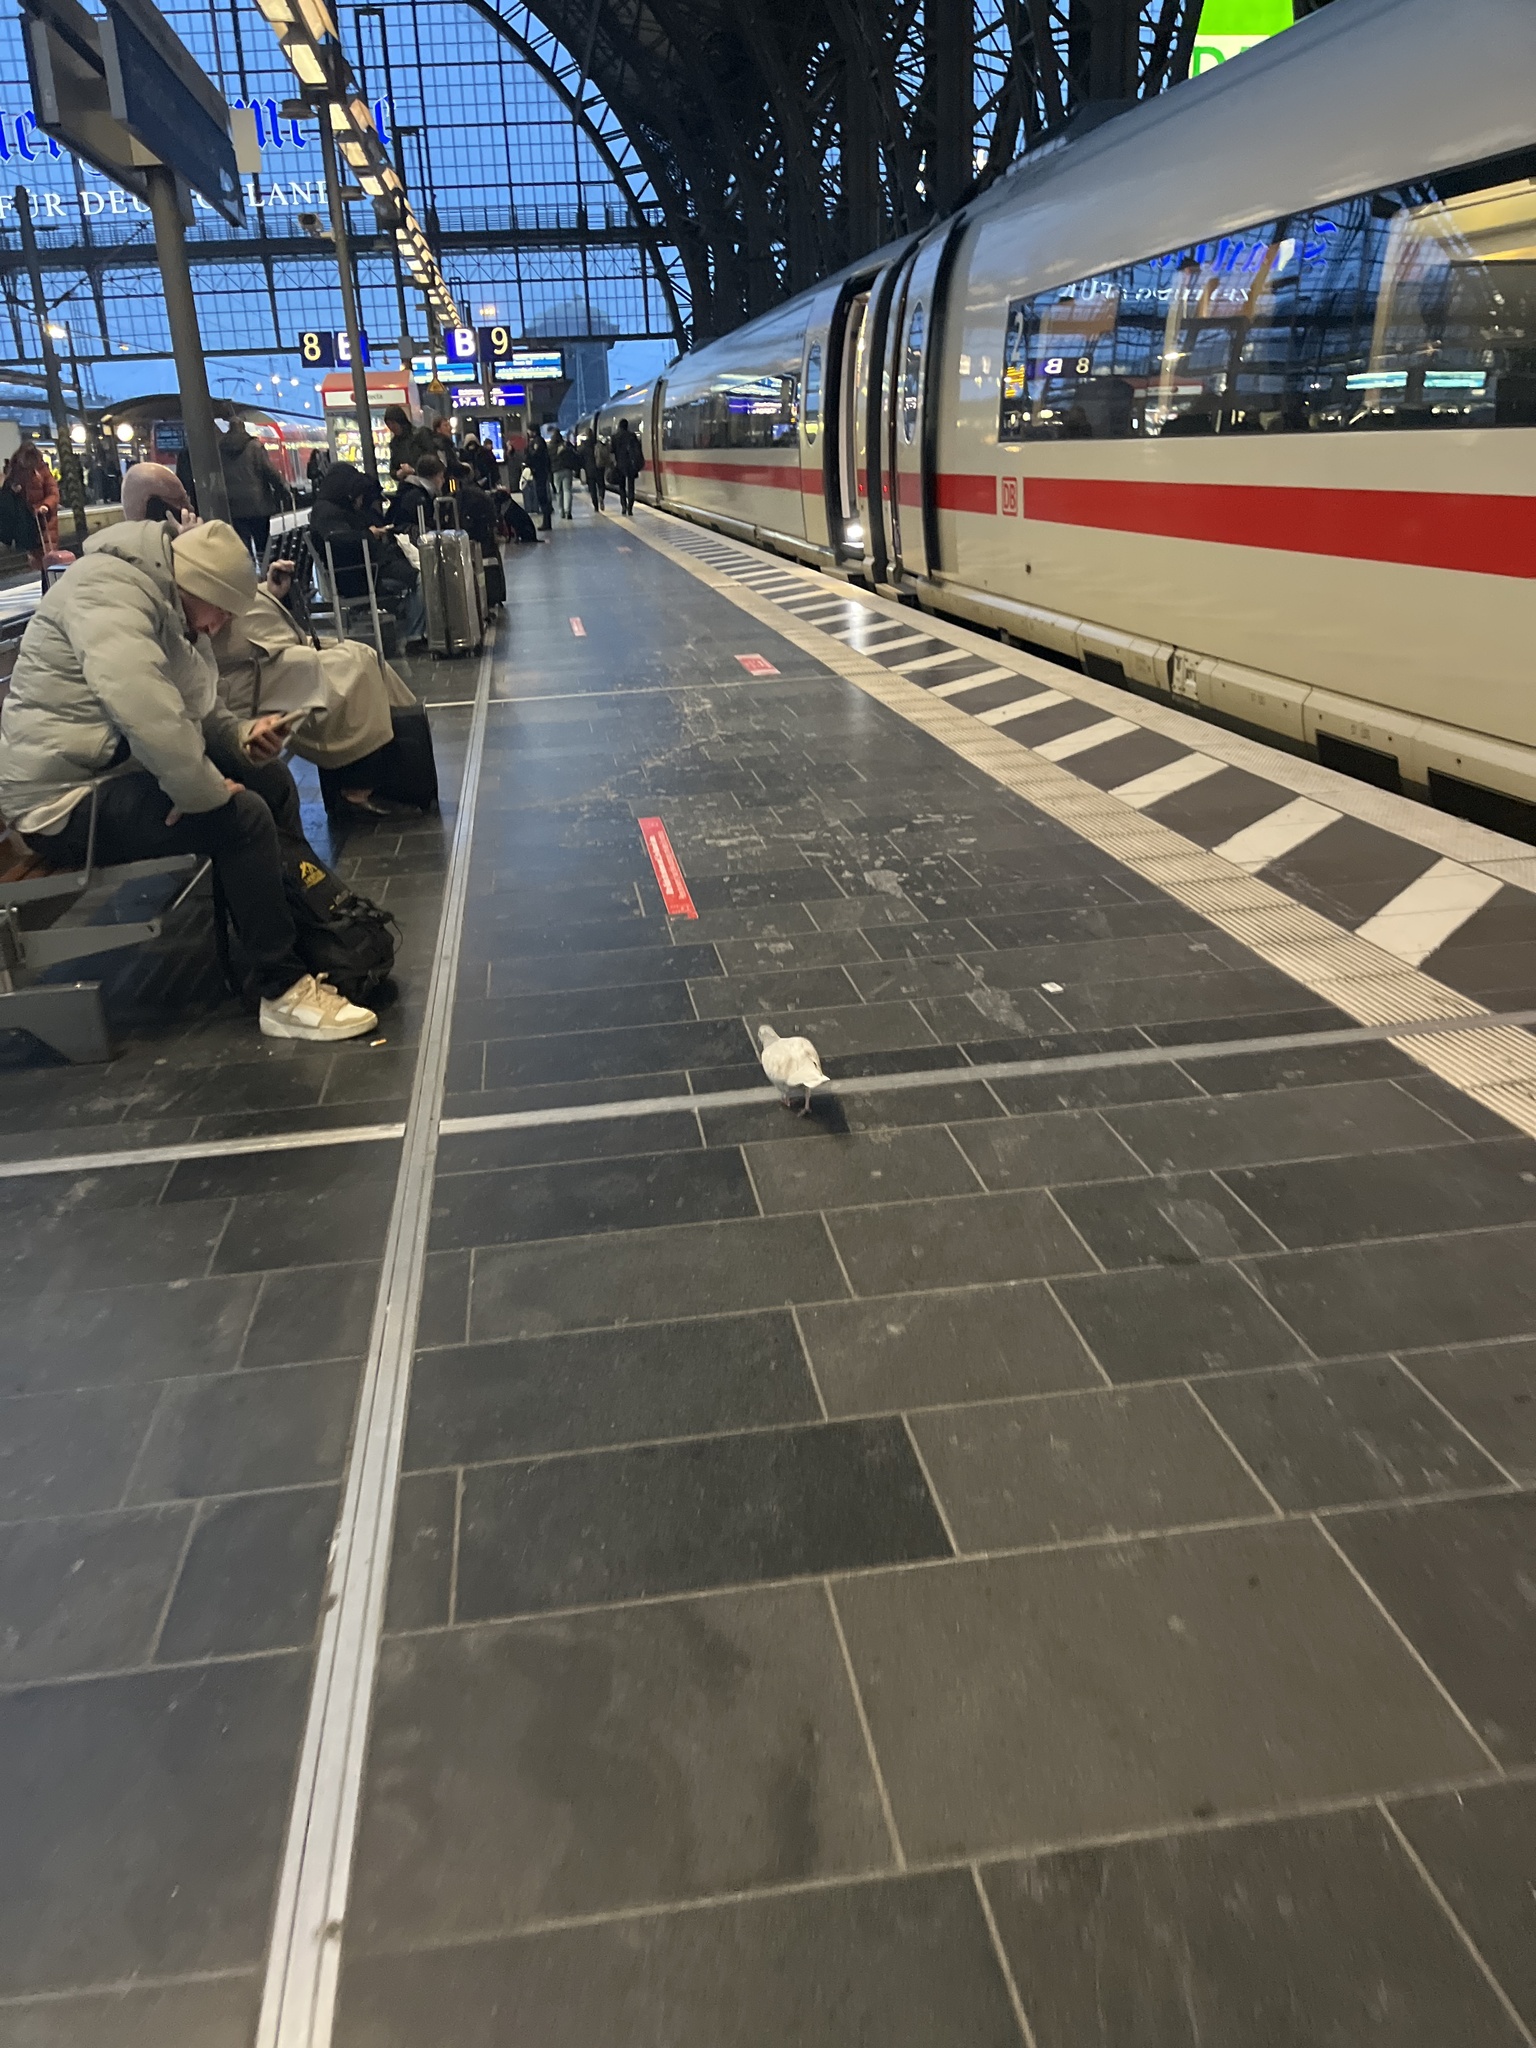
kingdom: Animalia
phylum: Chordata
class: Aves
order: Columbiformes
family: Columbidae
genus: Columba
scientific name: Columba livia
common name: Rock pigeon
